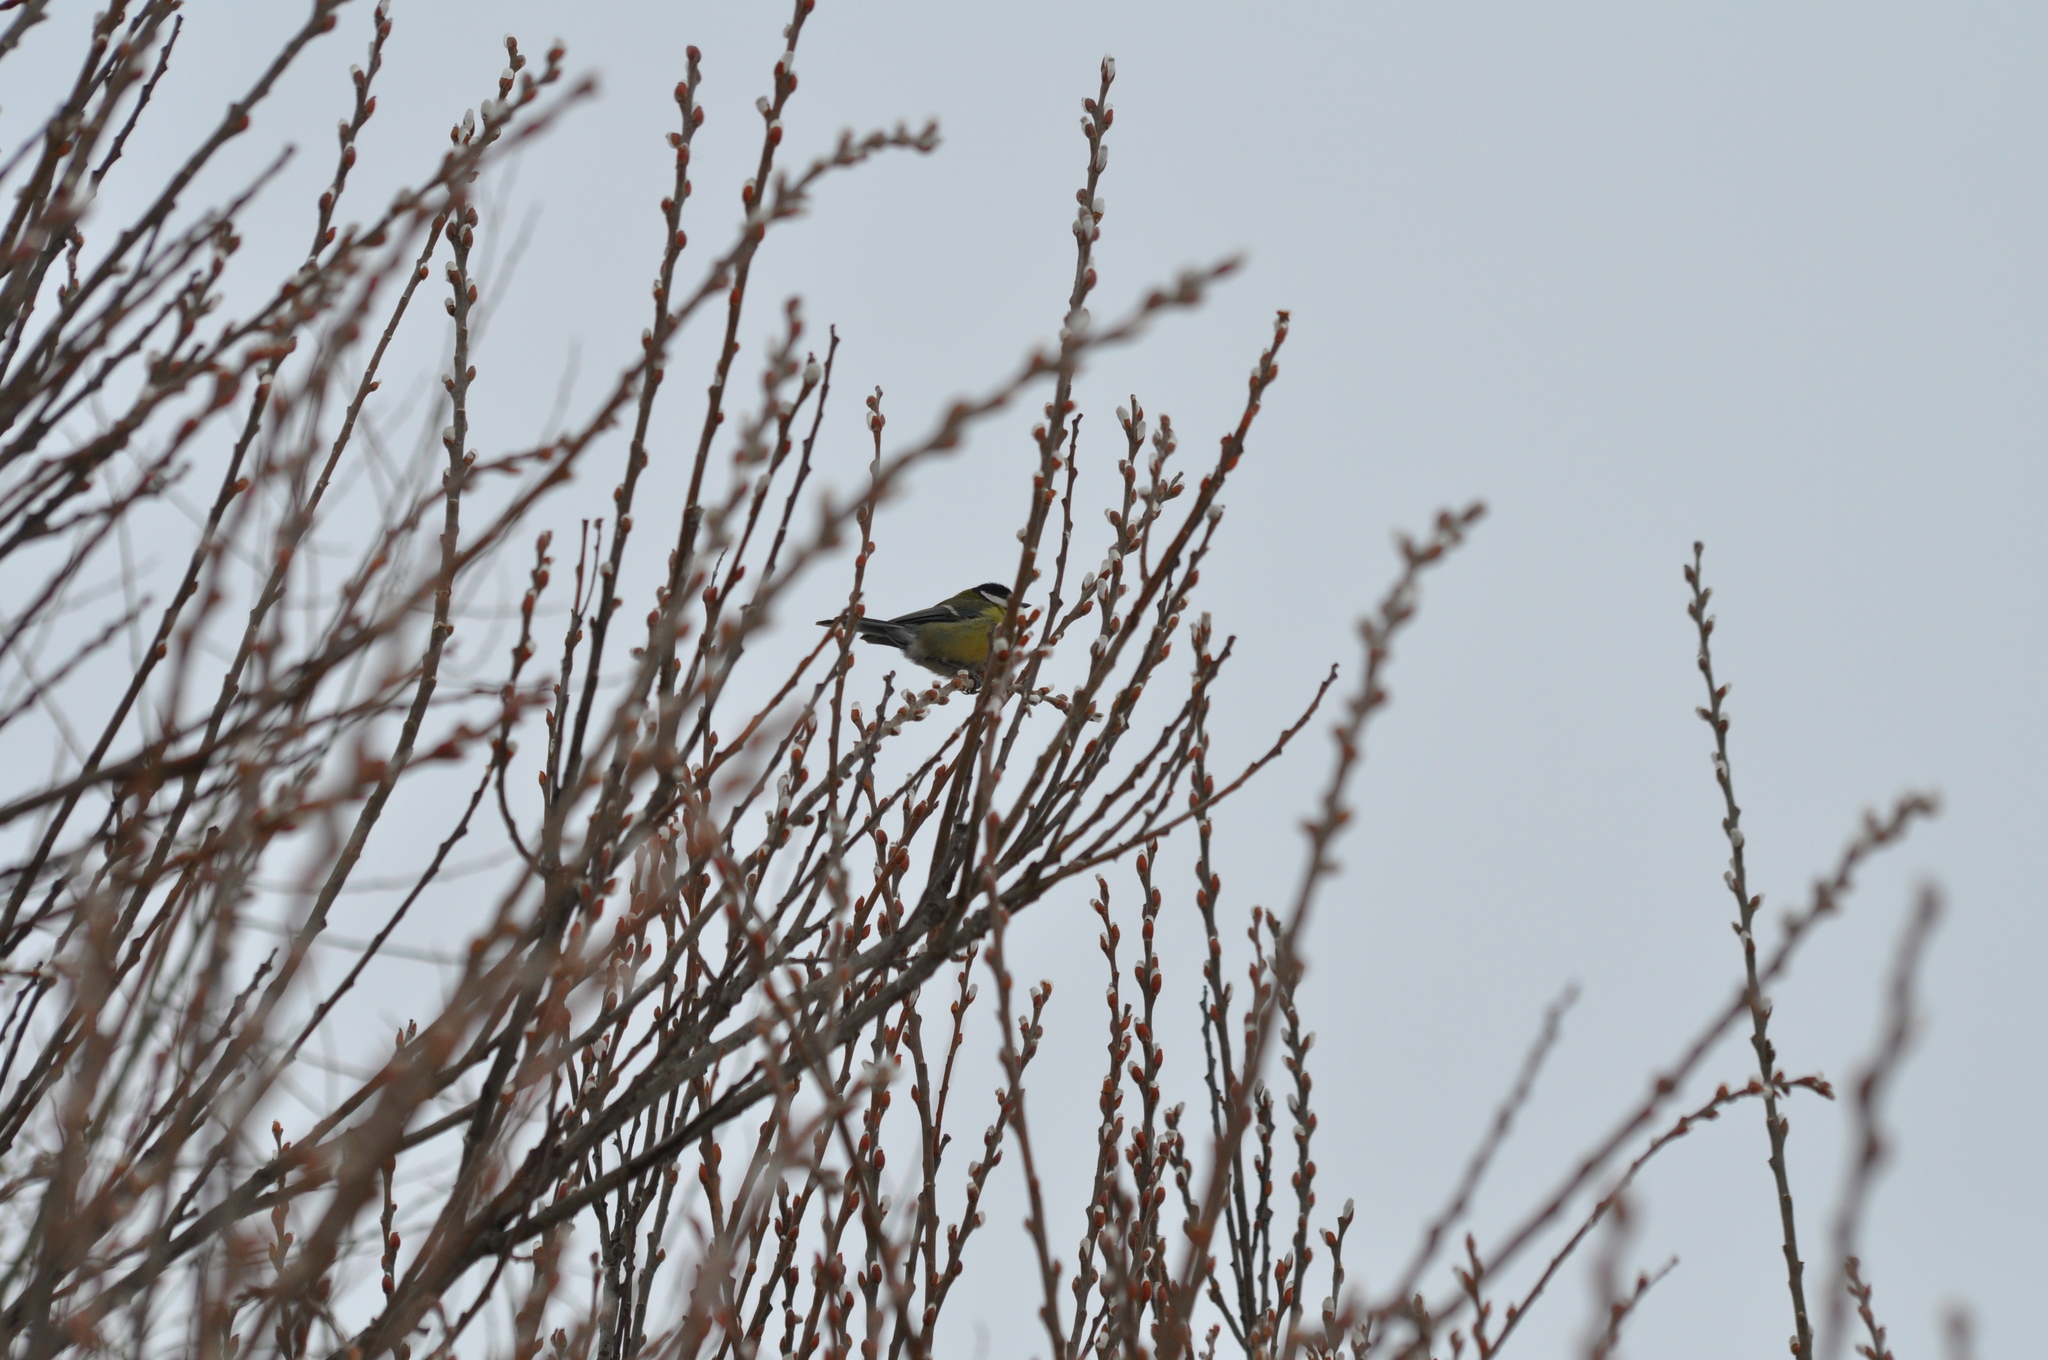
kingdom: Animalia
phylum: Chordata
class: Aves
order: Passeriformes
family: Paridae
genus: Parus
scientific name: Parus major
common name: Great tit
